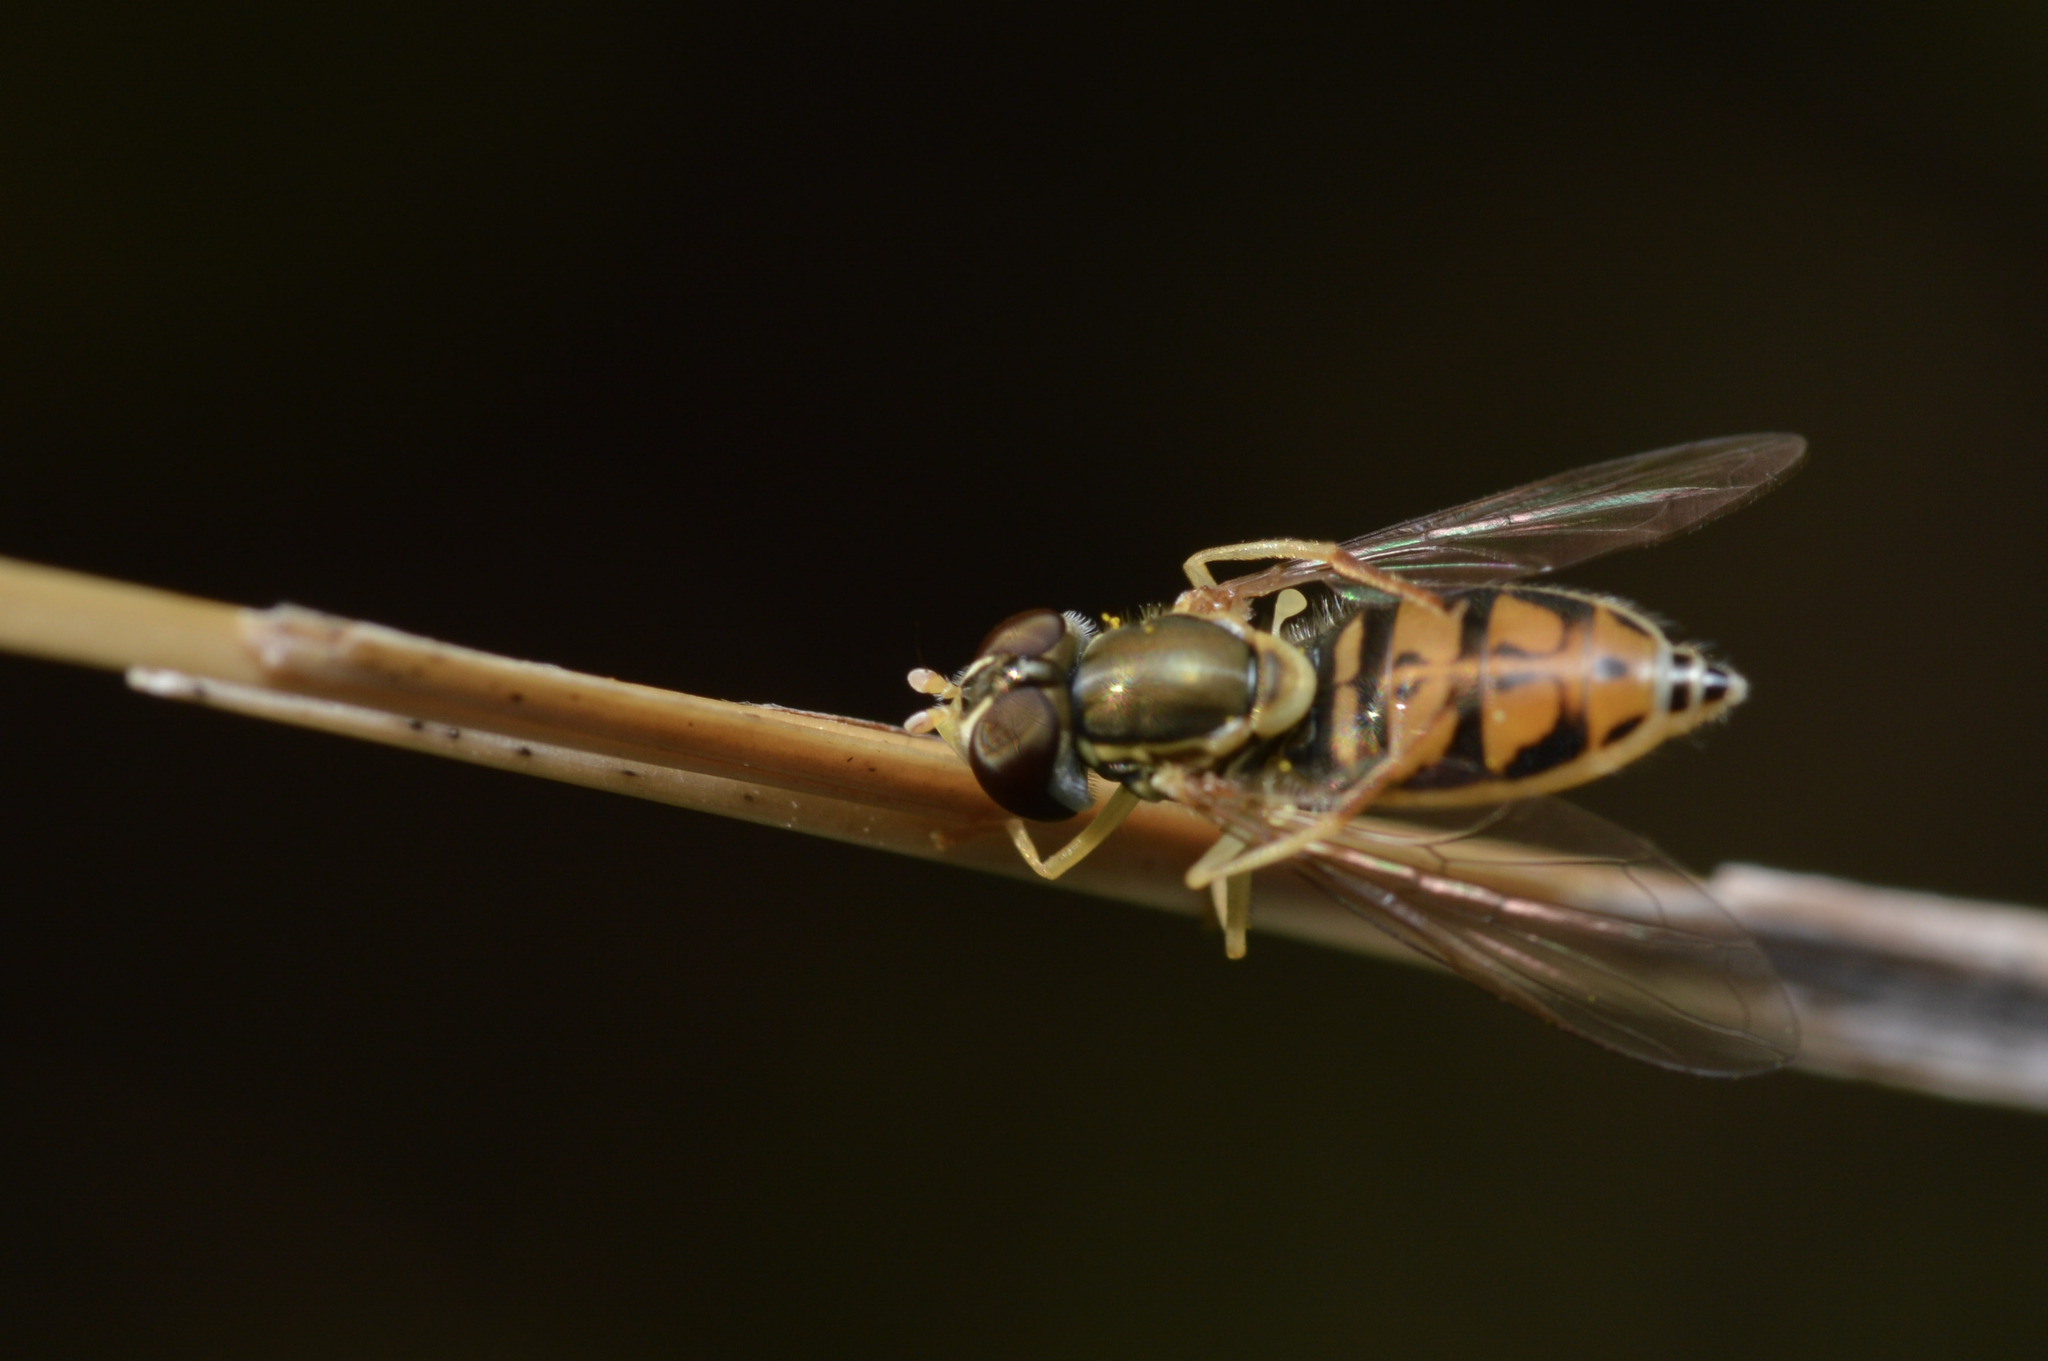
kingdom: Animalia
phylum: Arthropoda
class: Insecta
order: Diptera
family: Syrphidae
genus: Toxomerus
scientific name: Toxomerus marginatus
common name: Syrphid fly
